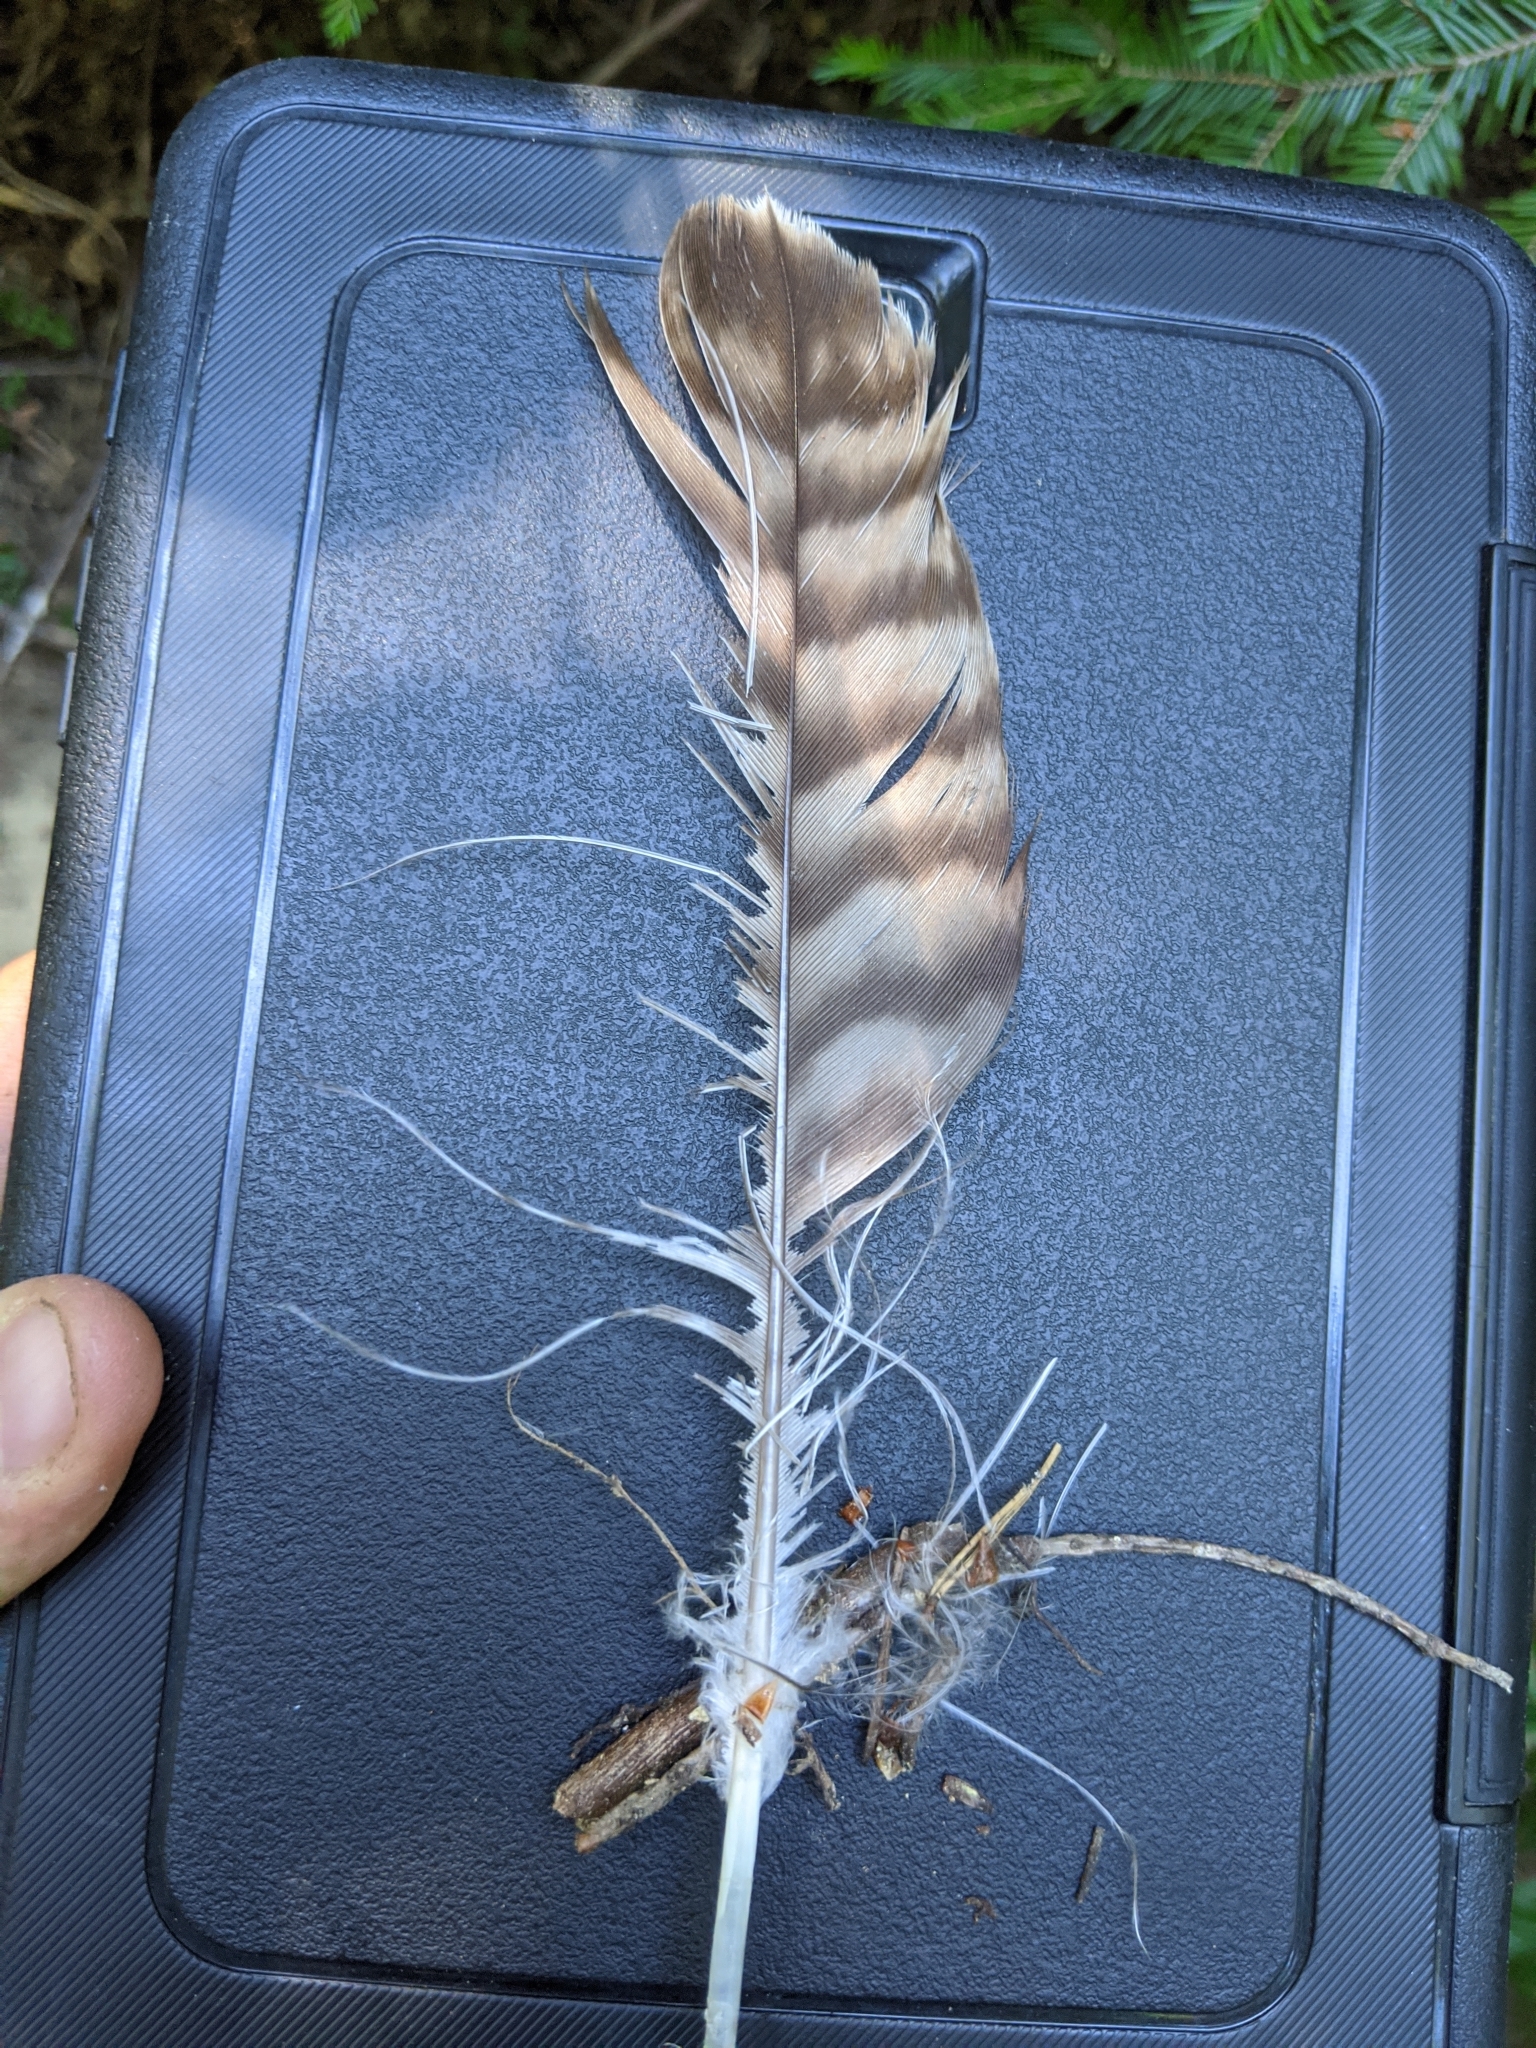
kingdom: Animalia
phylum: Chordata
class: Aves
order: Accipitriformes
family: Accipitridae
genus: Buteo
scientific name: Buteo jamaicensis
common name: Red-tailed hawk
